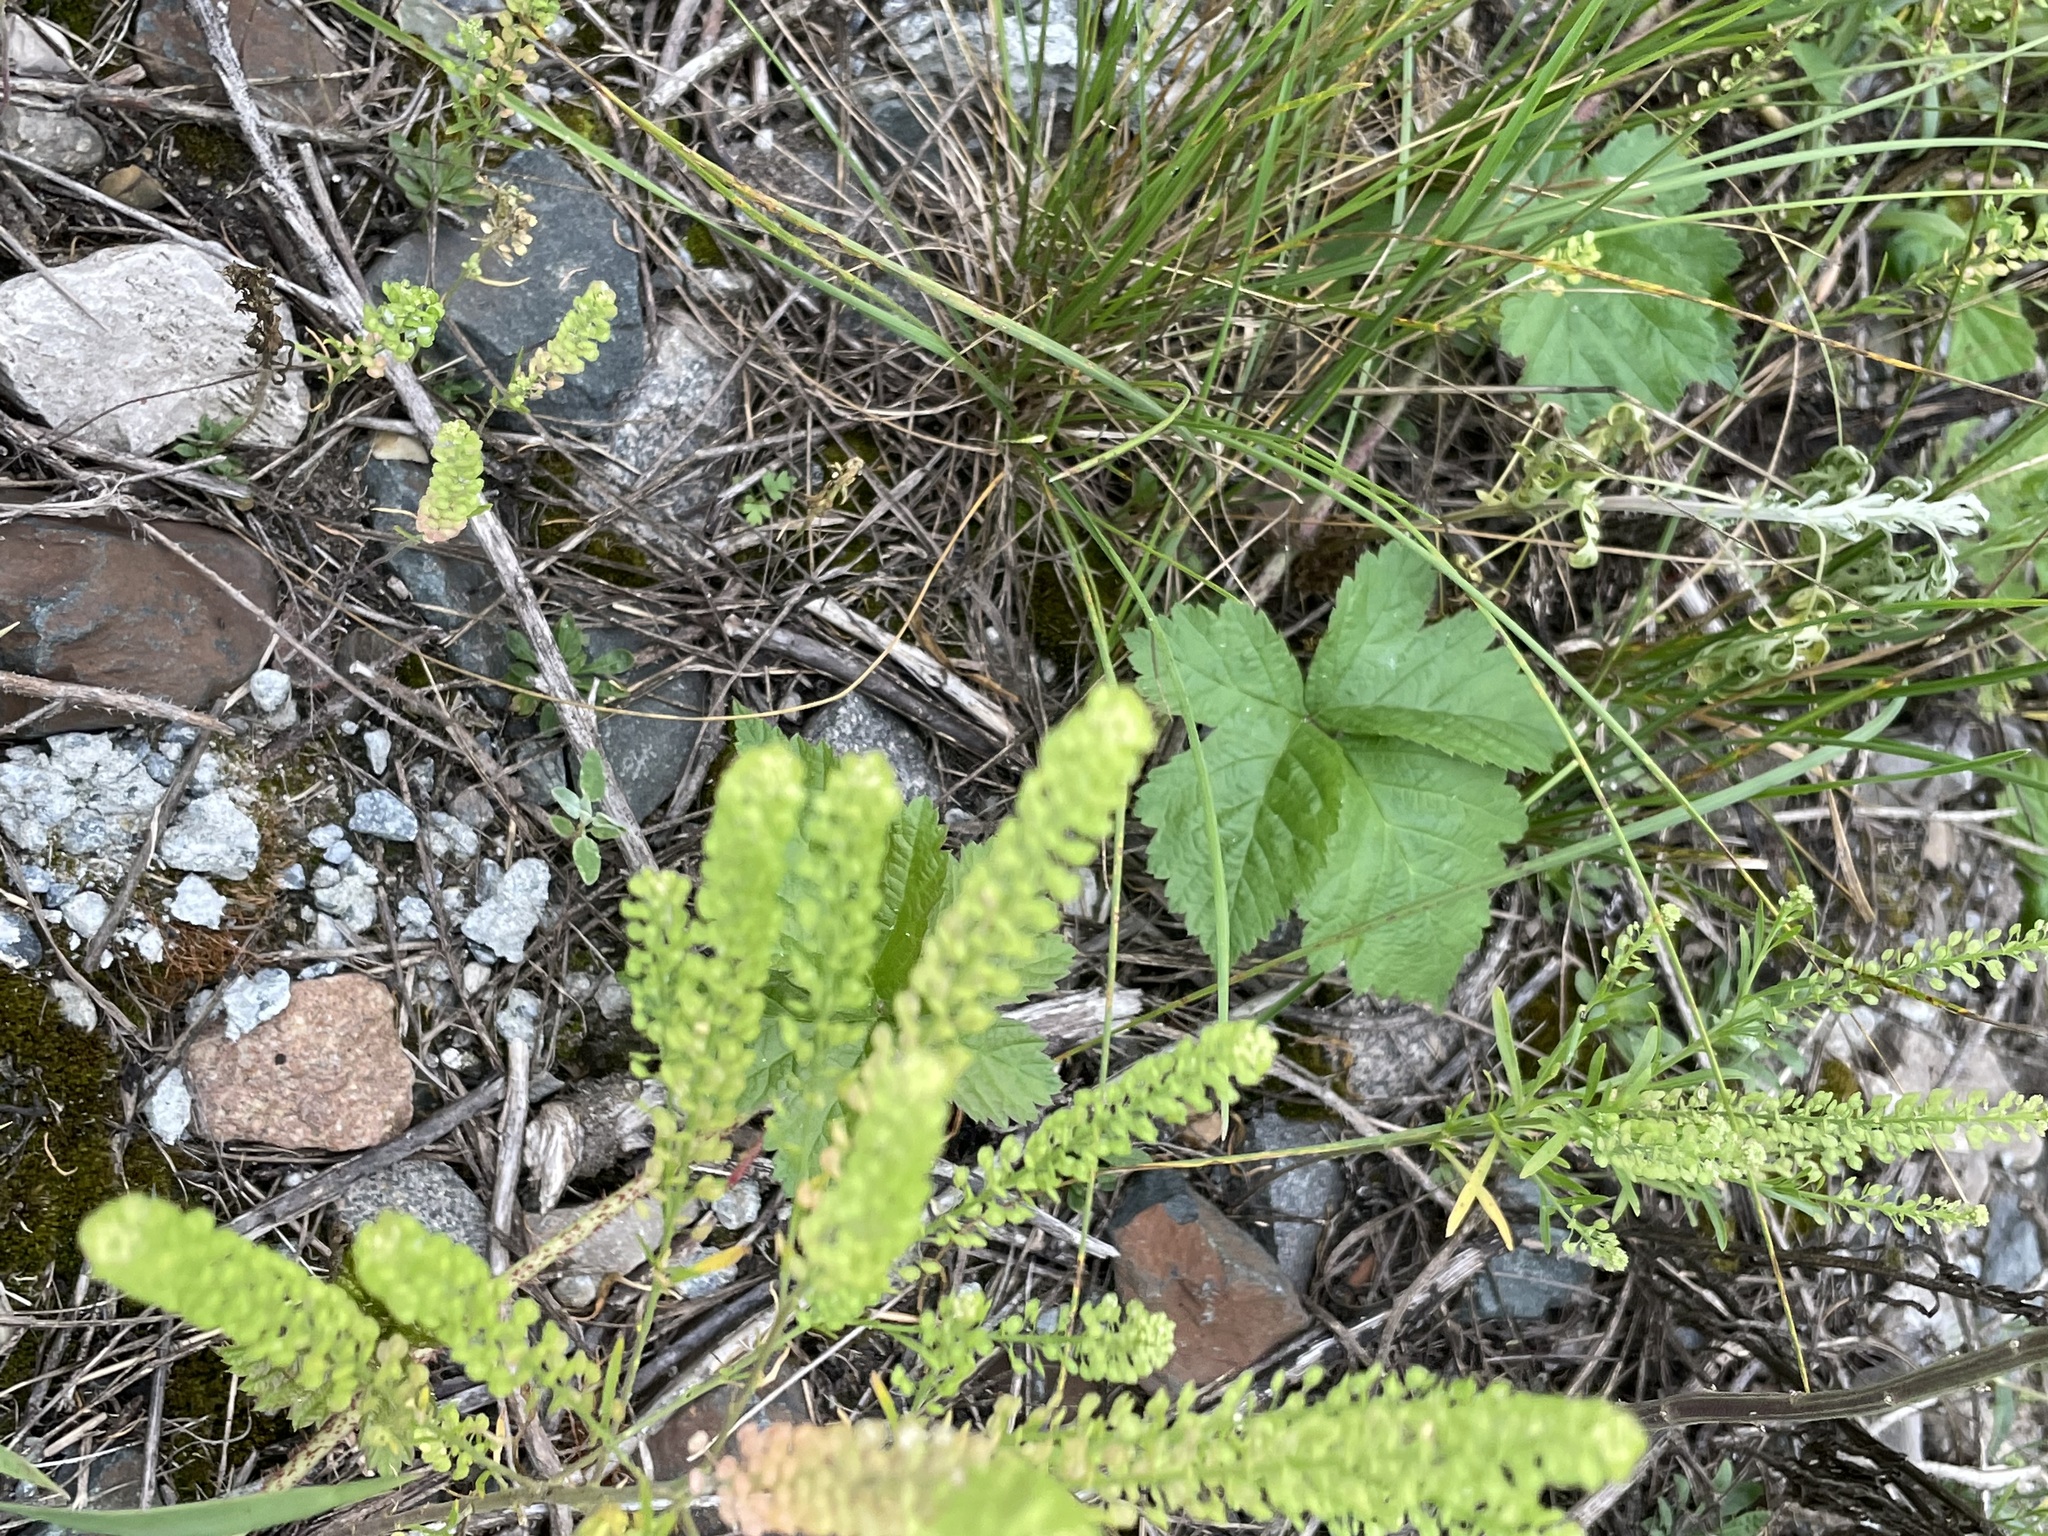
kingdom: Plantae
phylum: Tracheophyta
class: Magnoliopsida
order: Brassicales
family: Brassicaceae
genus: Lepidium
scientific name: Lepidium densiflorum
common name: Miner's pepperwort
